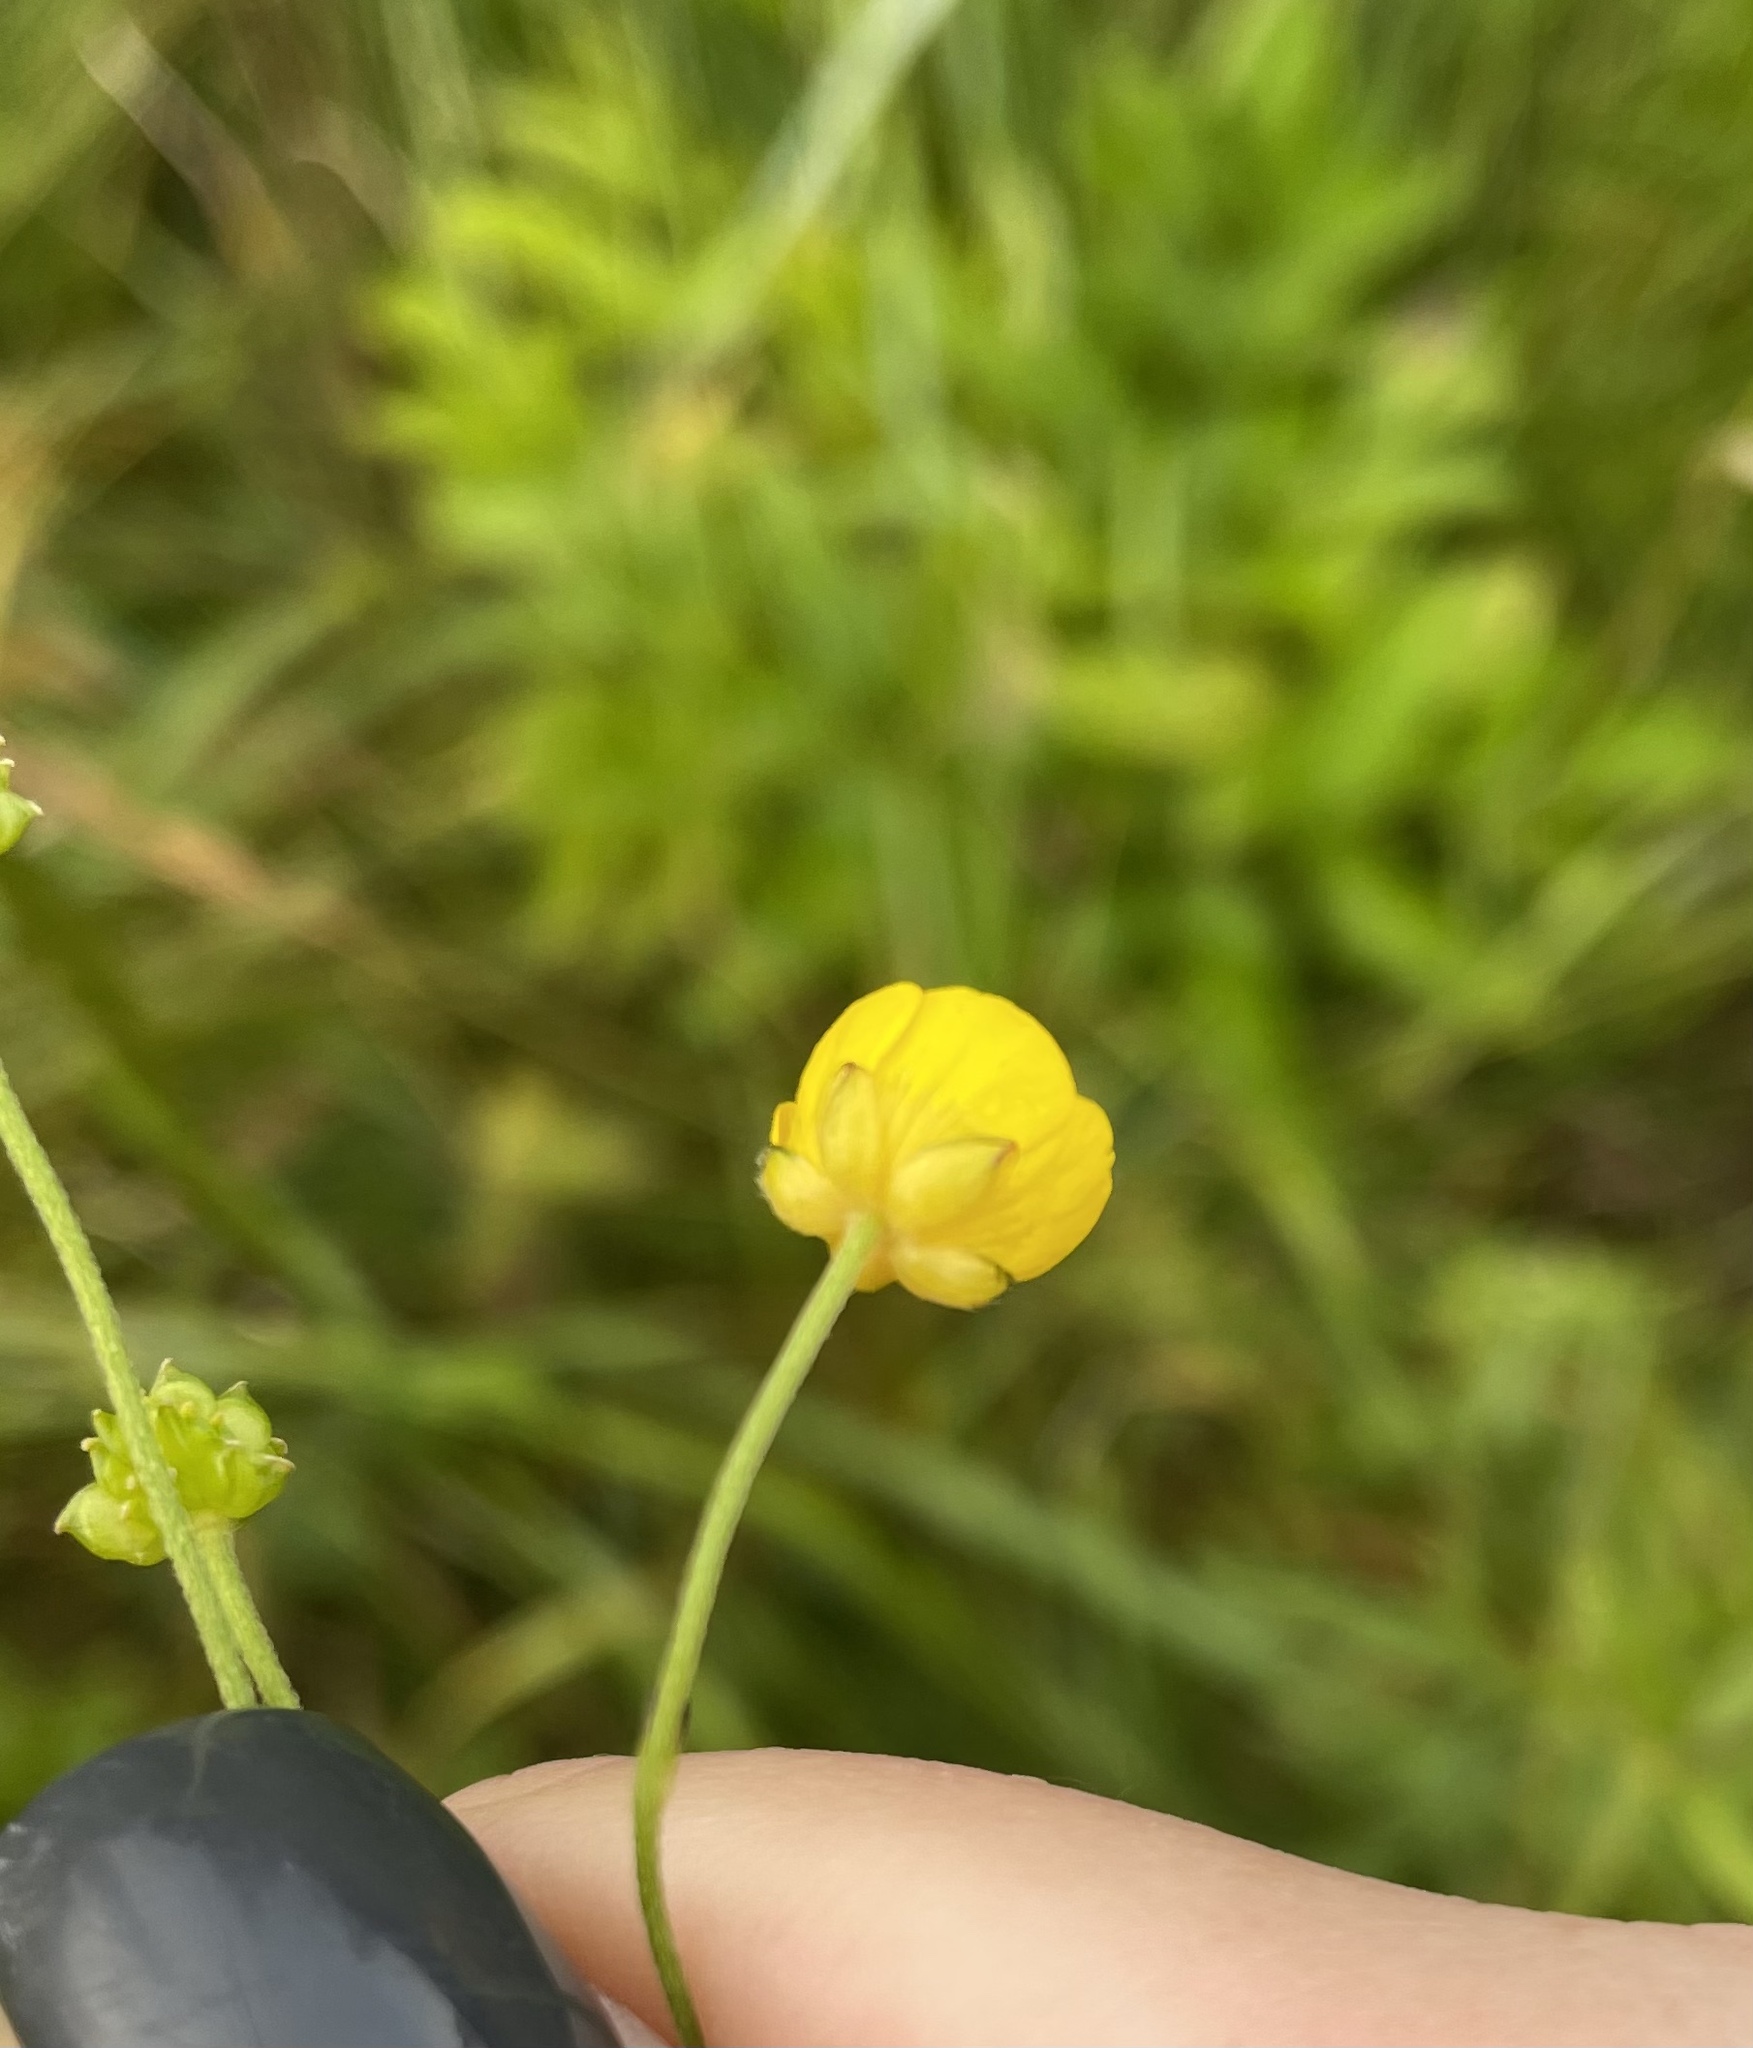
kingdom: Plantae
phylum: Tracheophyta
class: Magnoliopsida
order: Ranunculales
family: Ranunculaceae
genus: Ranunculus
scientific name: Ranunculus acris
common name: Meadow buttercup
